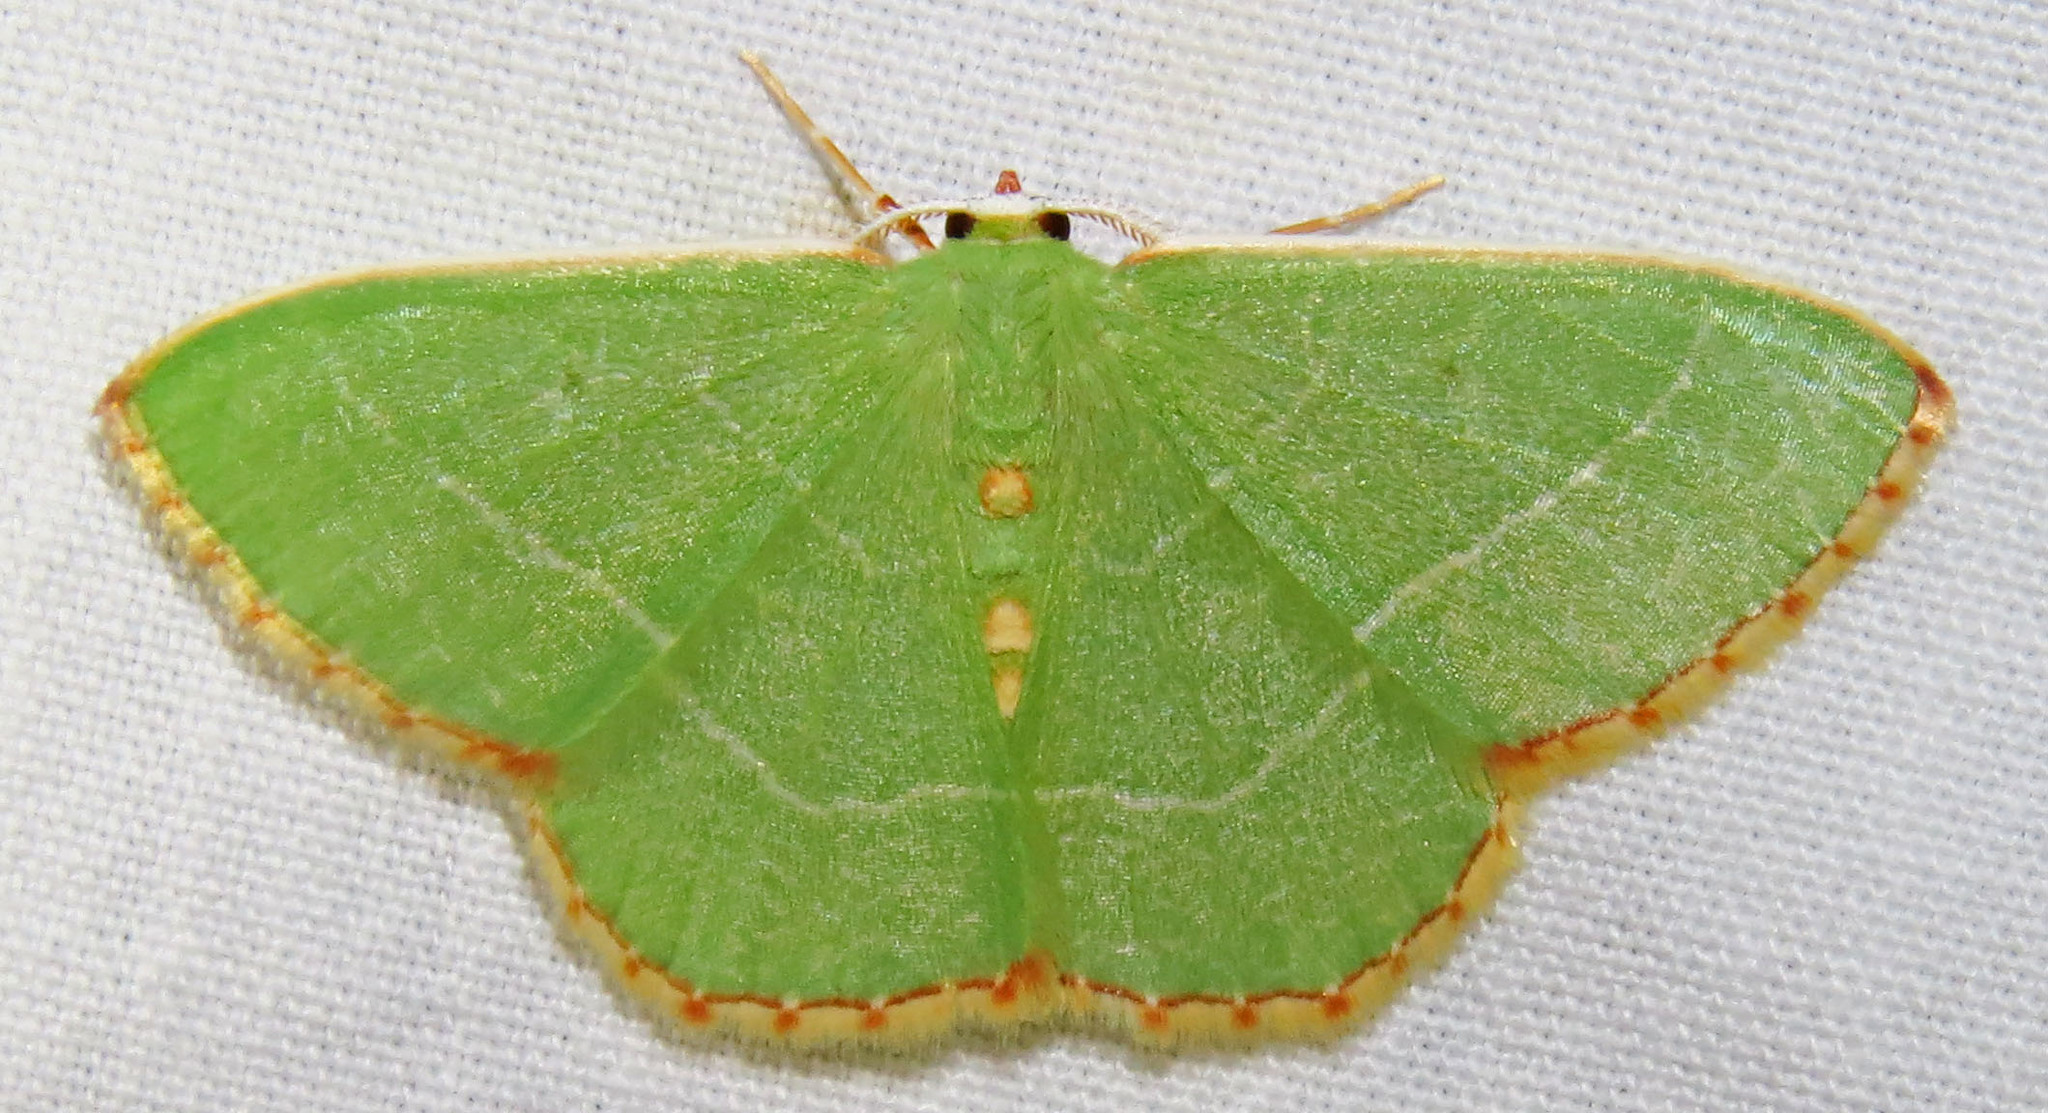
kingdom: Animalia
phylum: Arthropoda
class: Insecta
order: Lepidoptera
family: Geometridae
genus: Nemoria
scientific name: Nemoria bistriaria
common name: Red-fringed emerald
